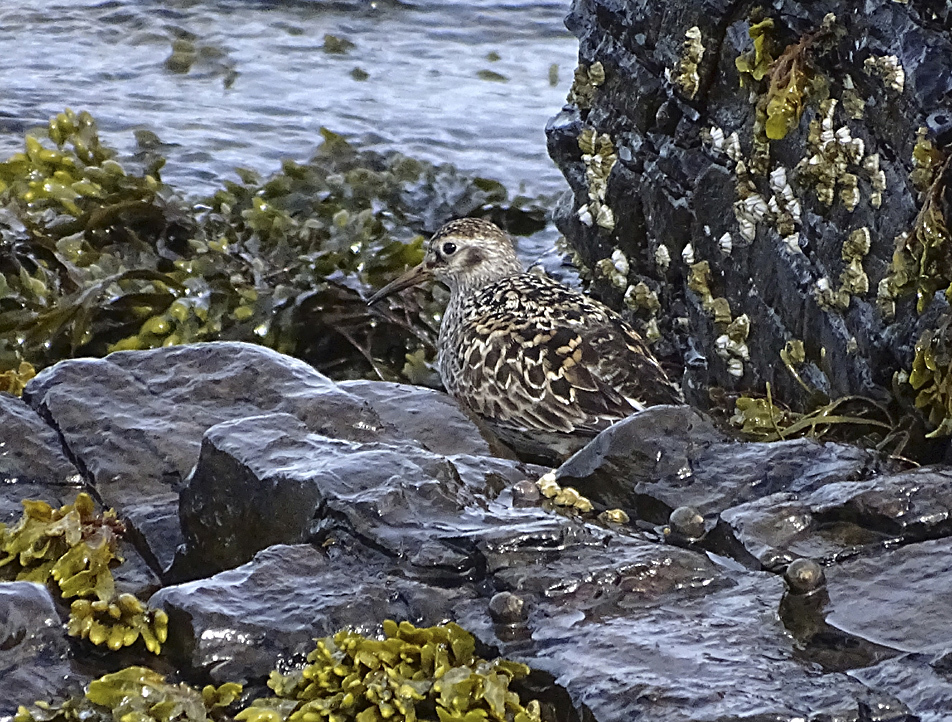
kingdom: Animalia
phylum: Chordata
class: Aves
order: Charadriiformes
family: Scolopacidae
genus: Calidris
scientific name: Calidris maritima
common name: Purple sandpiper
